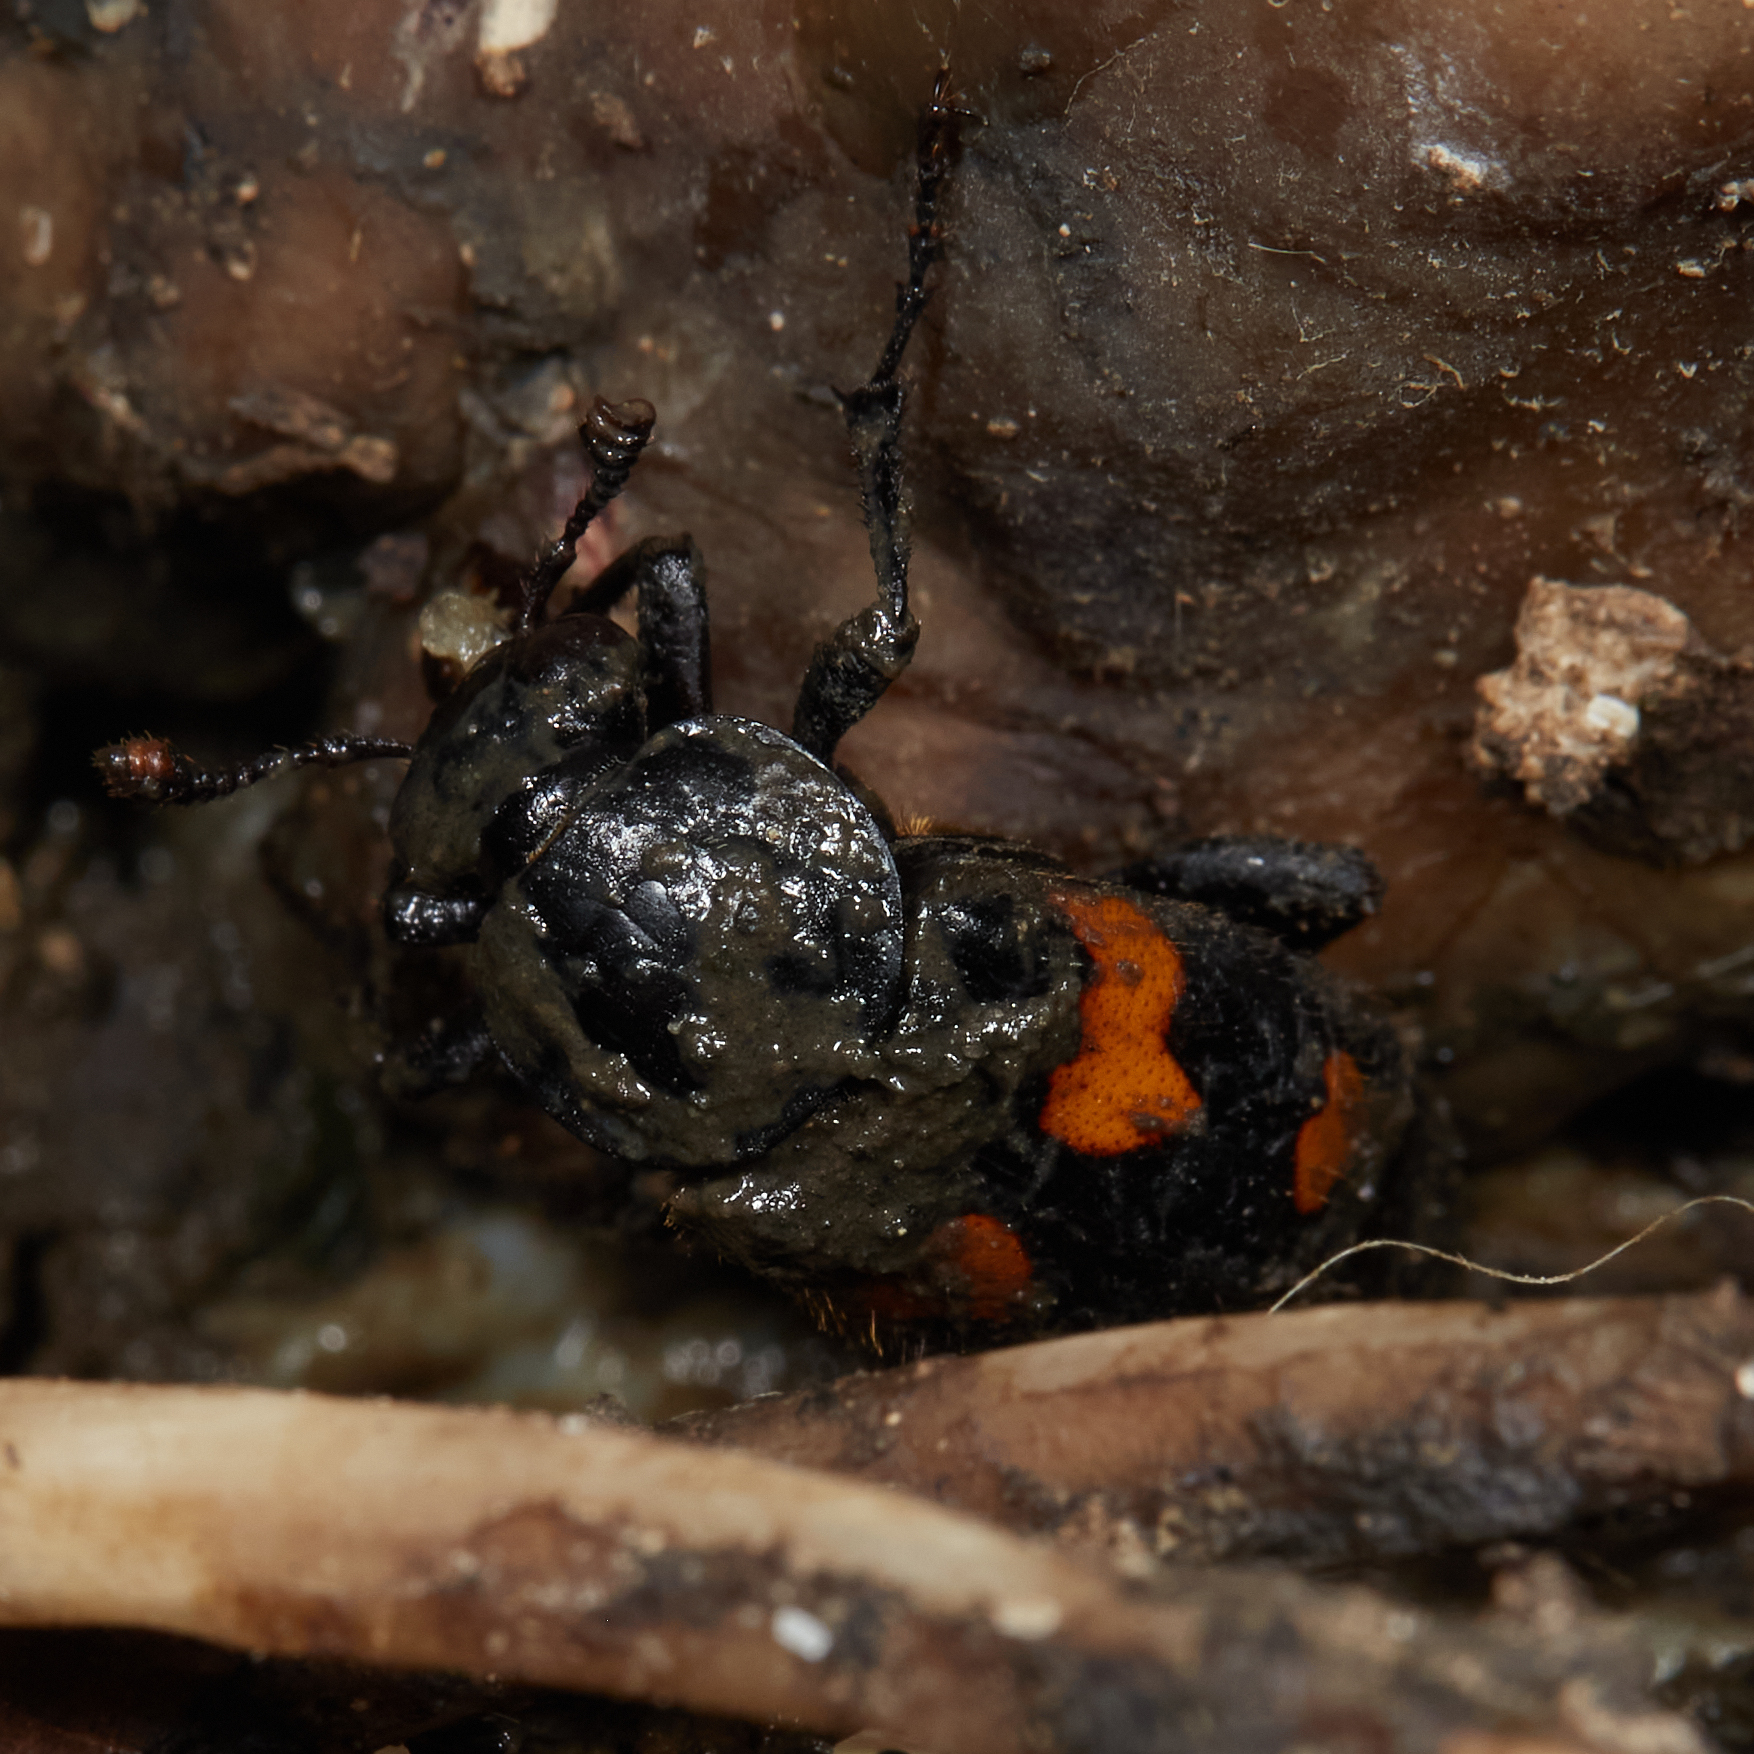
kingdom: Animalia
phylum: Arthropoda
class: Insecta
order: Coleoptera
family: Staphylinidae
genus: Nicrophorus
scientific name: Nicrophorus orbicollis
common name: Roundneck sexton beetle
